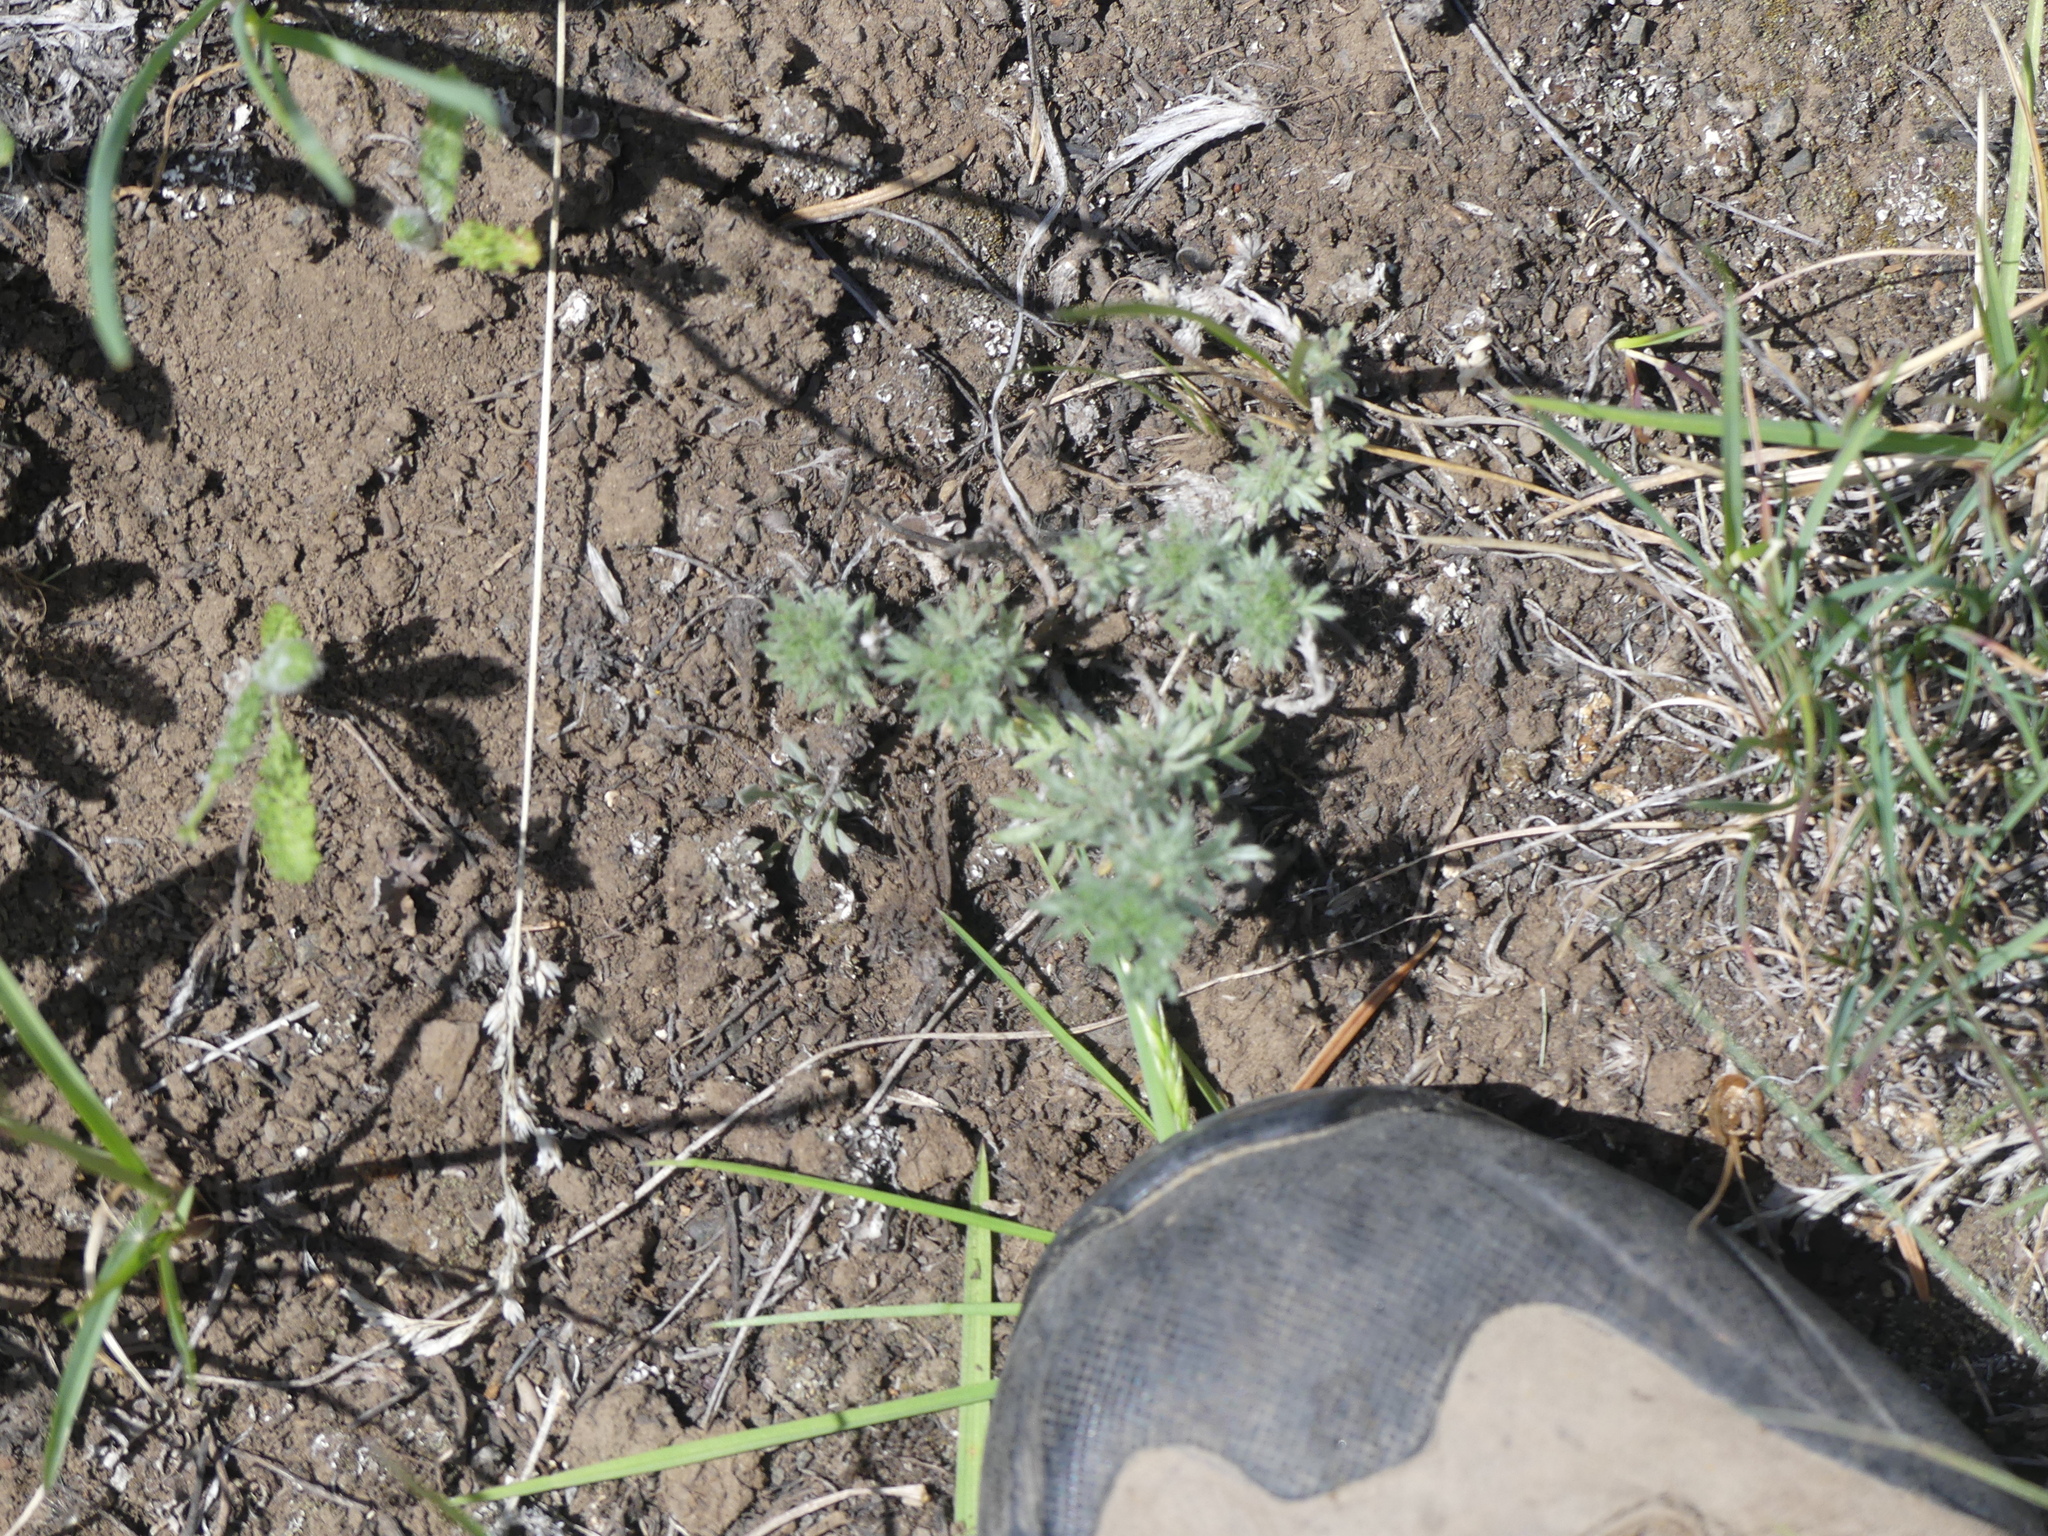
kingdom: Plantae
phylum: Tracheophyta
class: Magnoliopsida
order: Asterales
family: Asteraceae
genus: Artemisia
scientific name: Artemisia frigida
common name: Prairie sagewort
